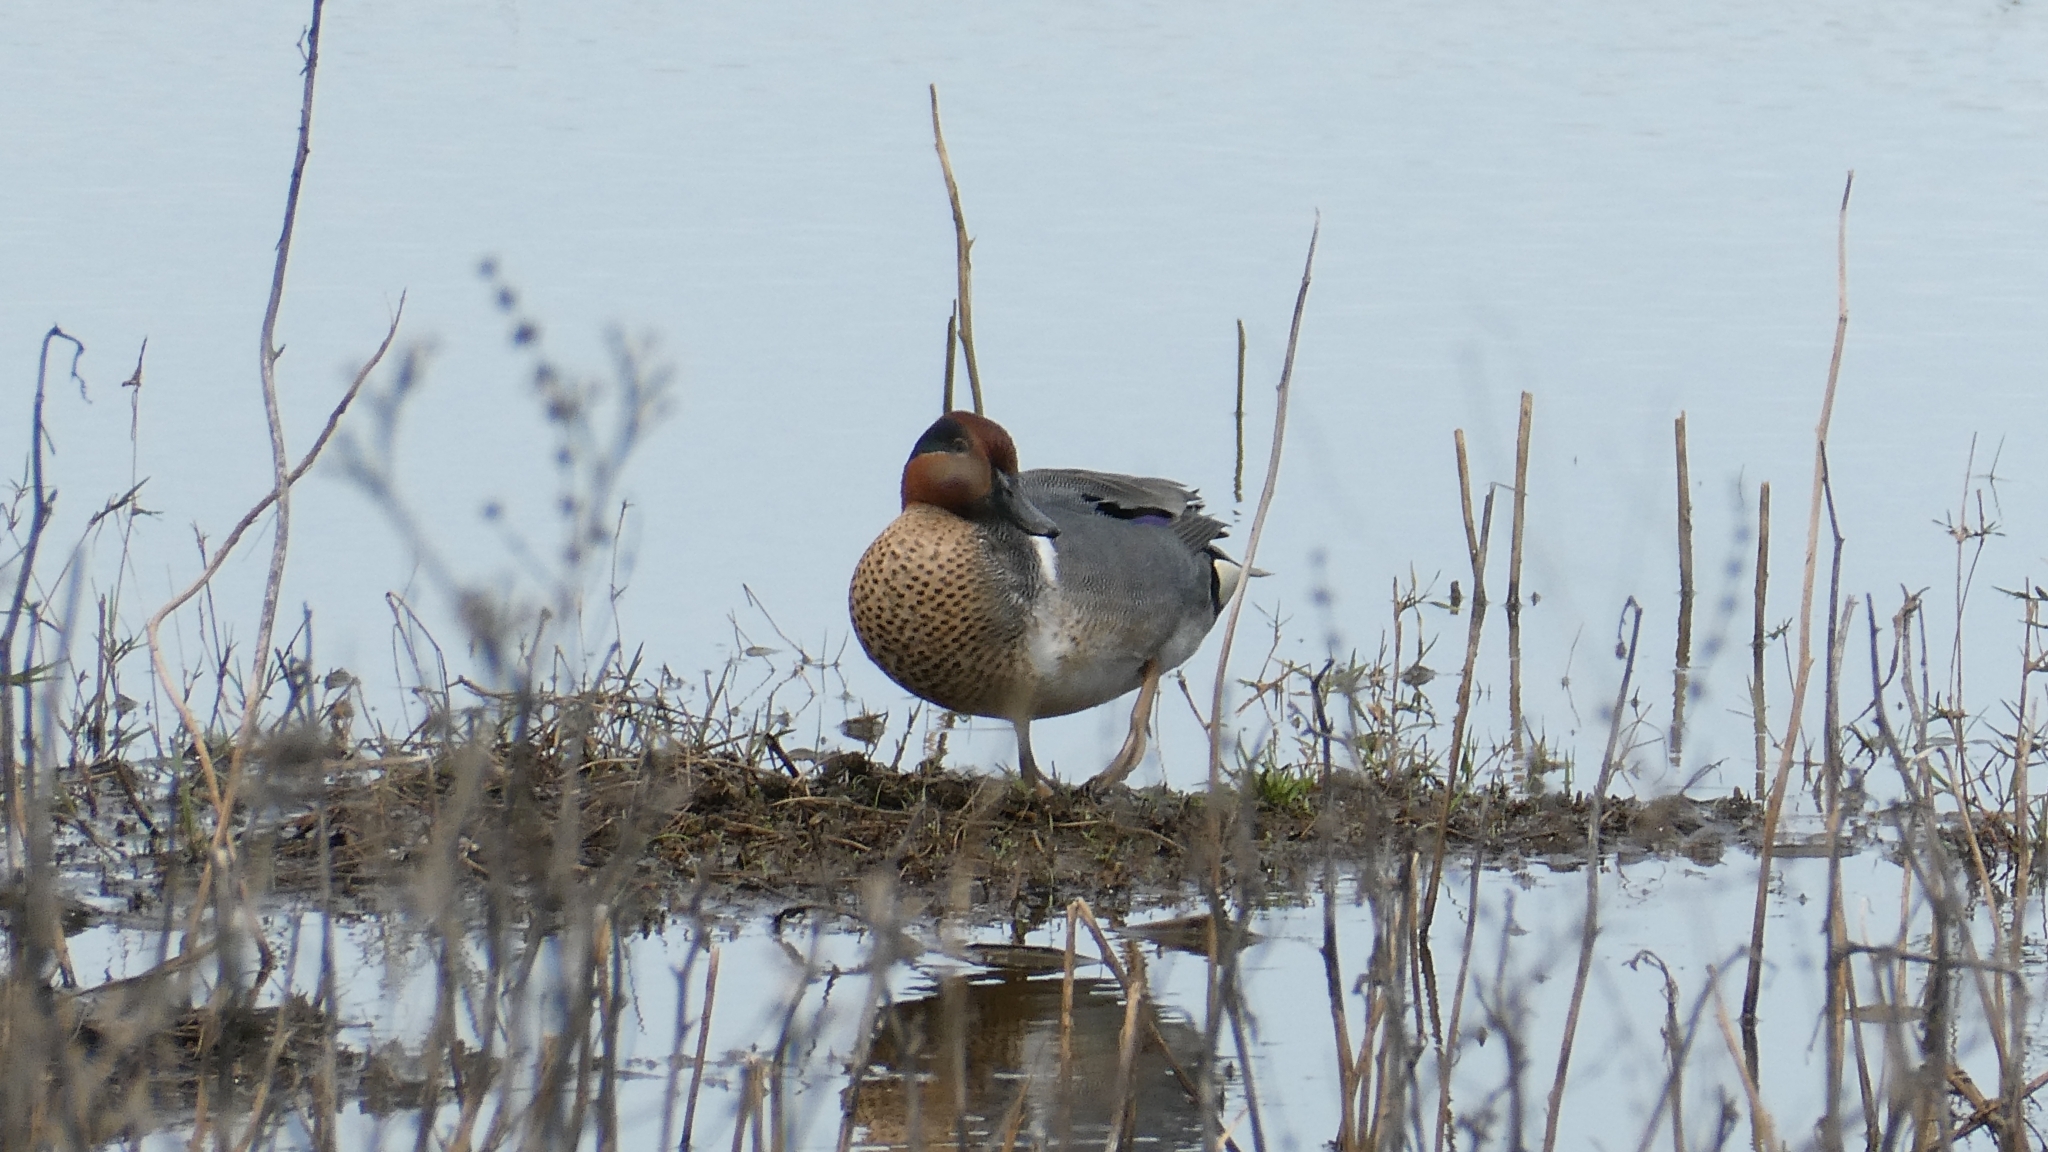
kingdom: Animalia
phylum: Chordata
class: Aves
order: Anseriformes
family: Anatidae
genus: Anas
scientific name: Anas crecca
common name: Eurasian teal
